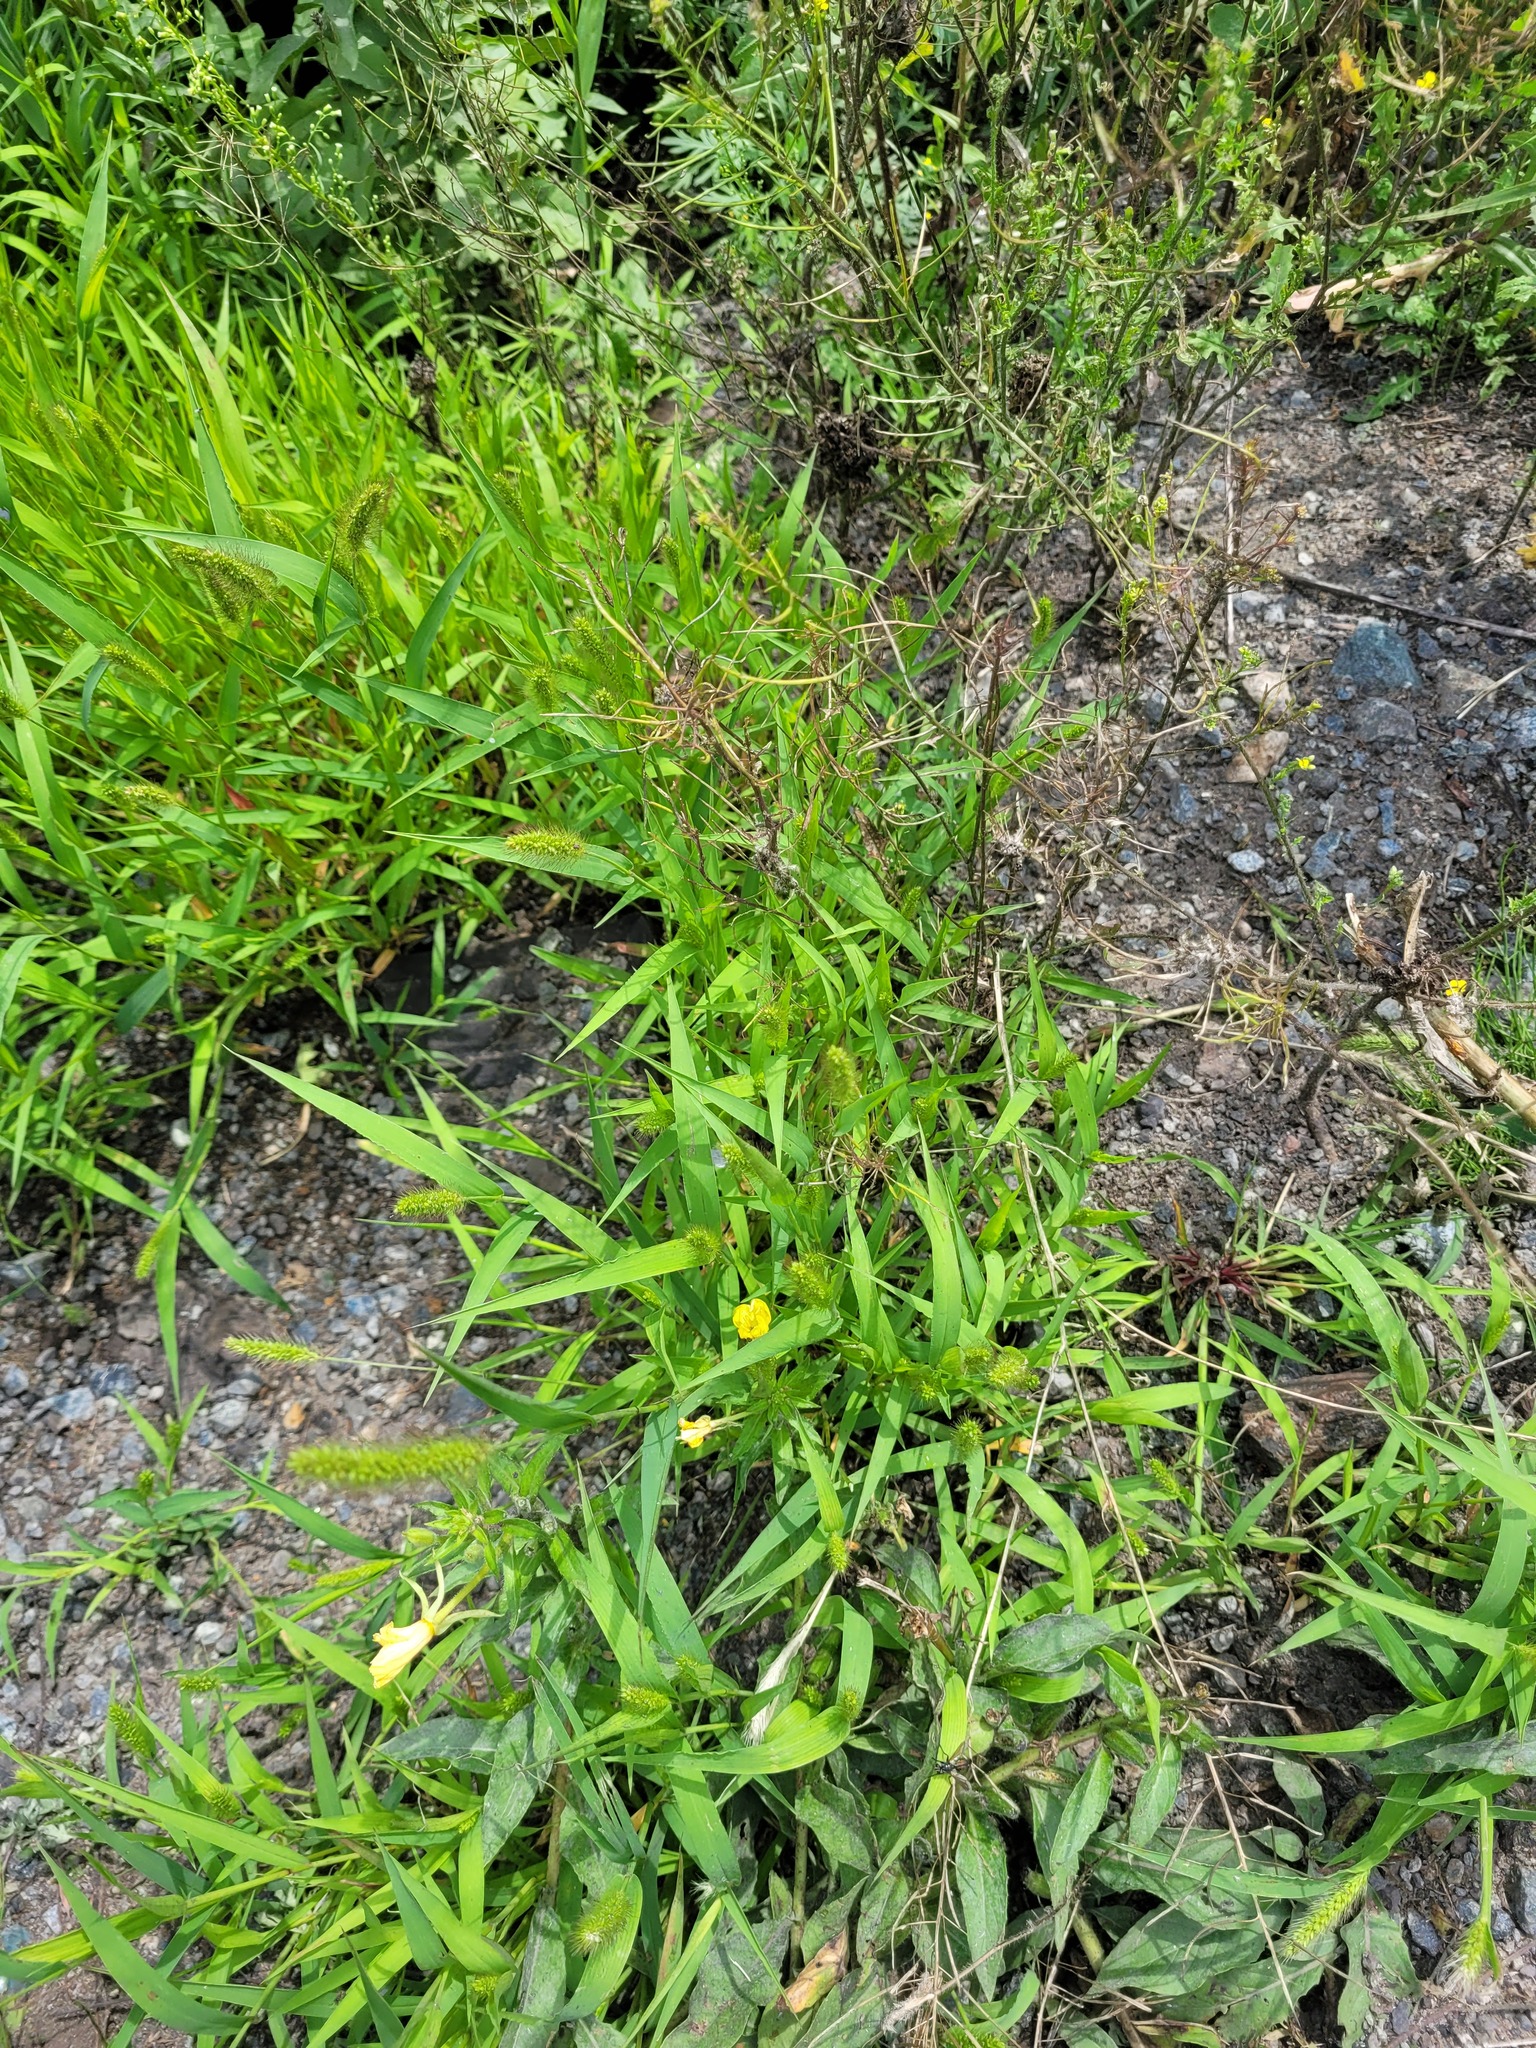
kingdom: Plantae
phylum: Tracheophyta
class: Liliopsida
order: Poales
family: Poaceae
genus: Setaria
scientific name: Setaria viridis
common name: Green bristlegrass
